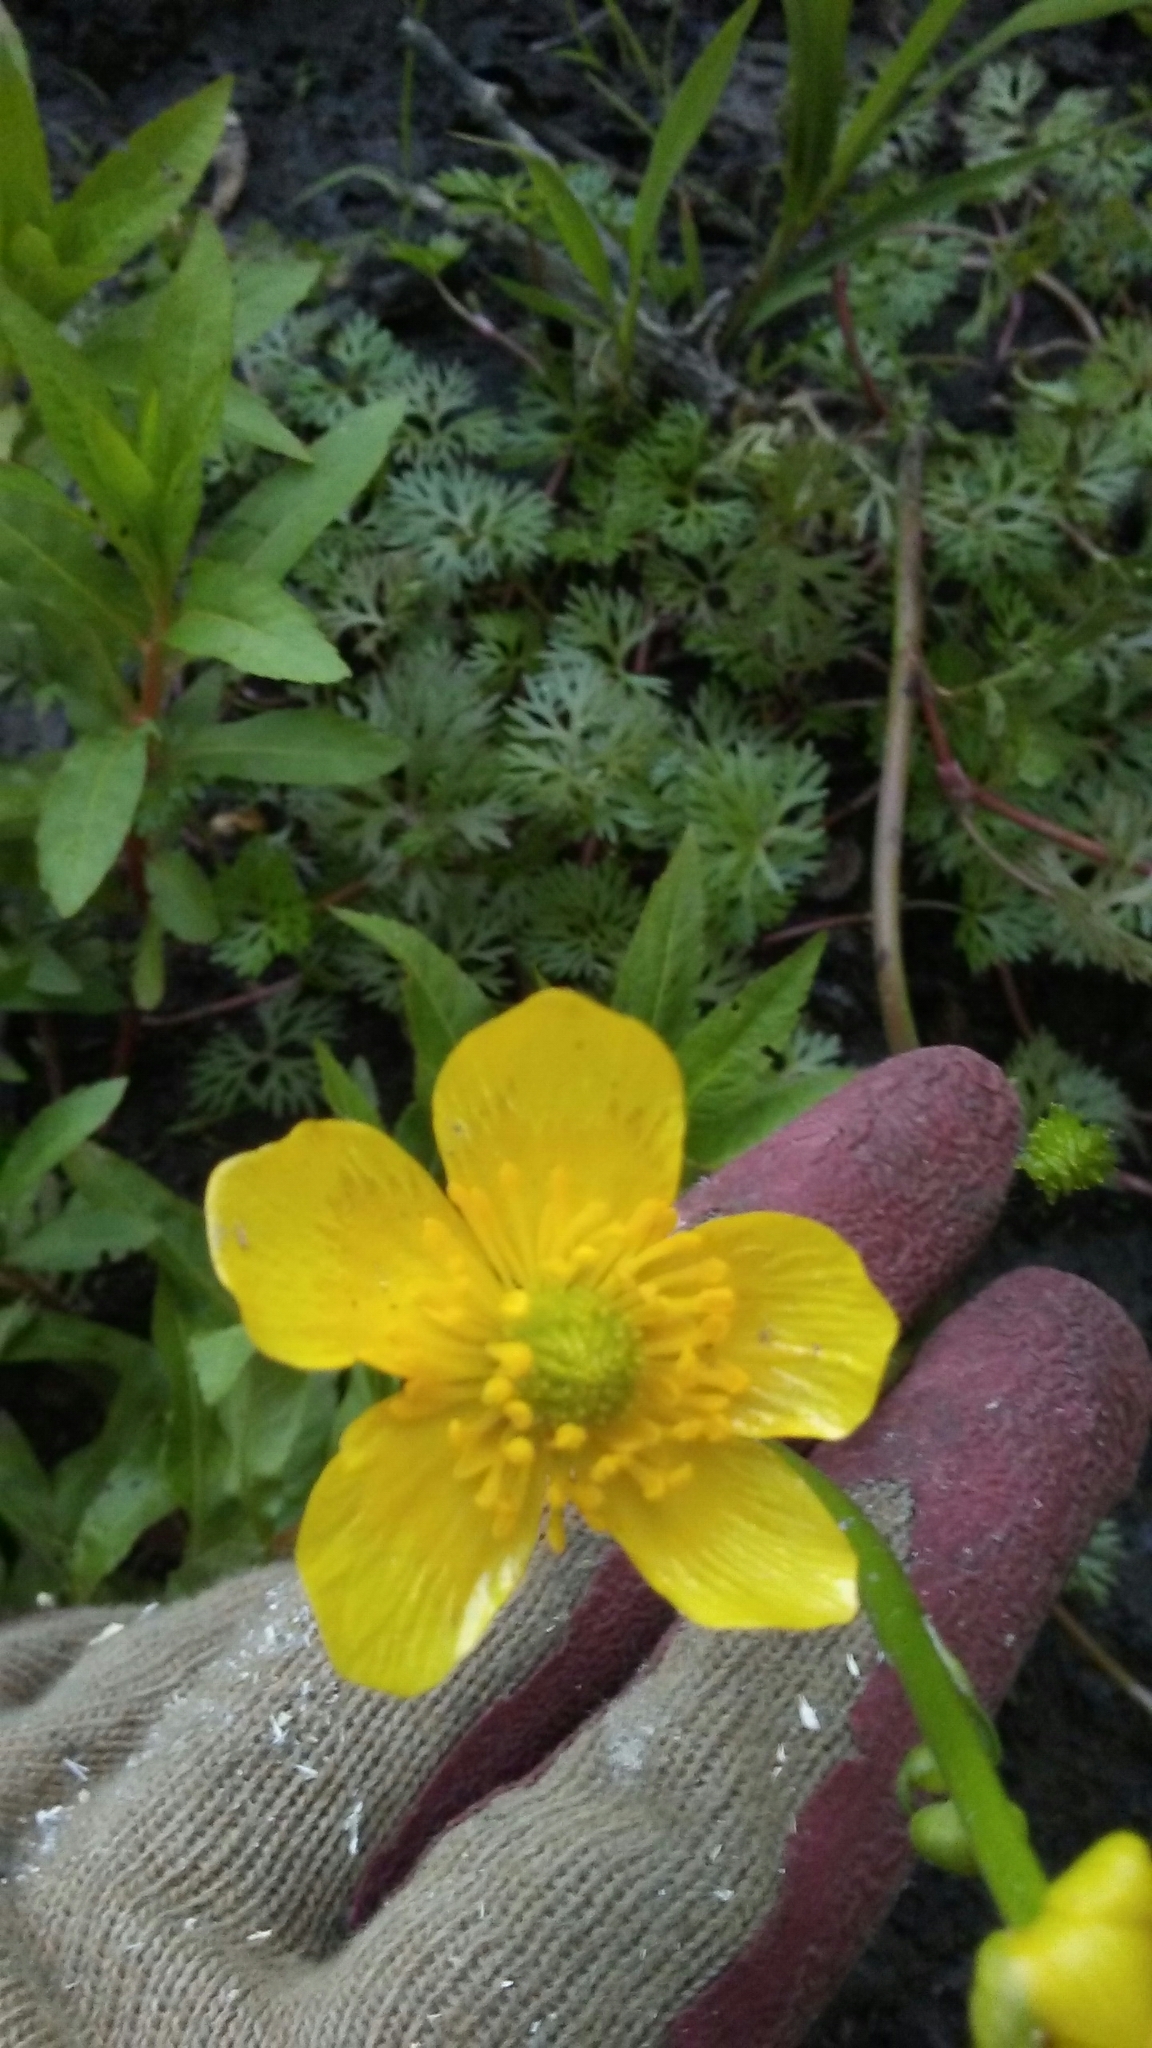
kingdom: Plantae
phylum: Tracheophyta
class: Magnoliopsida
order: Ranunculales
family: Ranunculaceae
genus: Ranunculus
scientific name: Ranunculus flabellaris
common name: Yellow water-crowfoot
